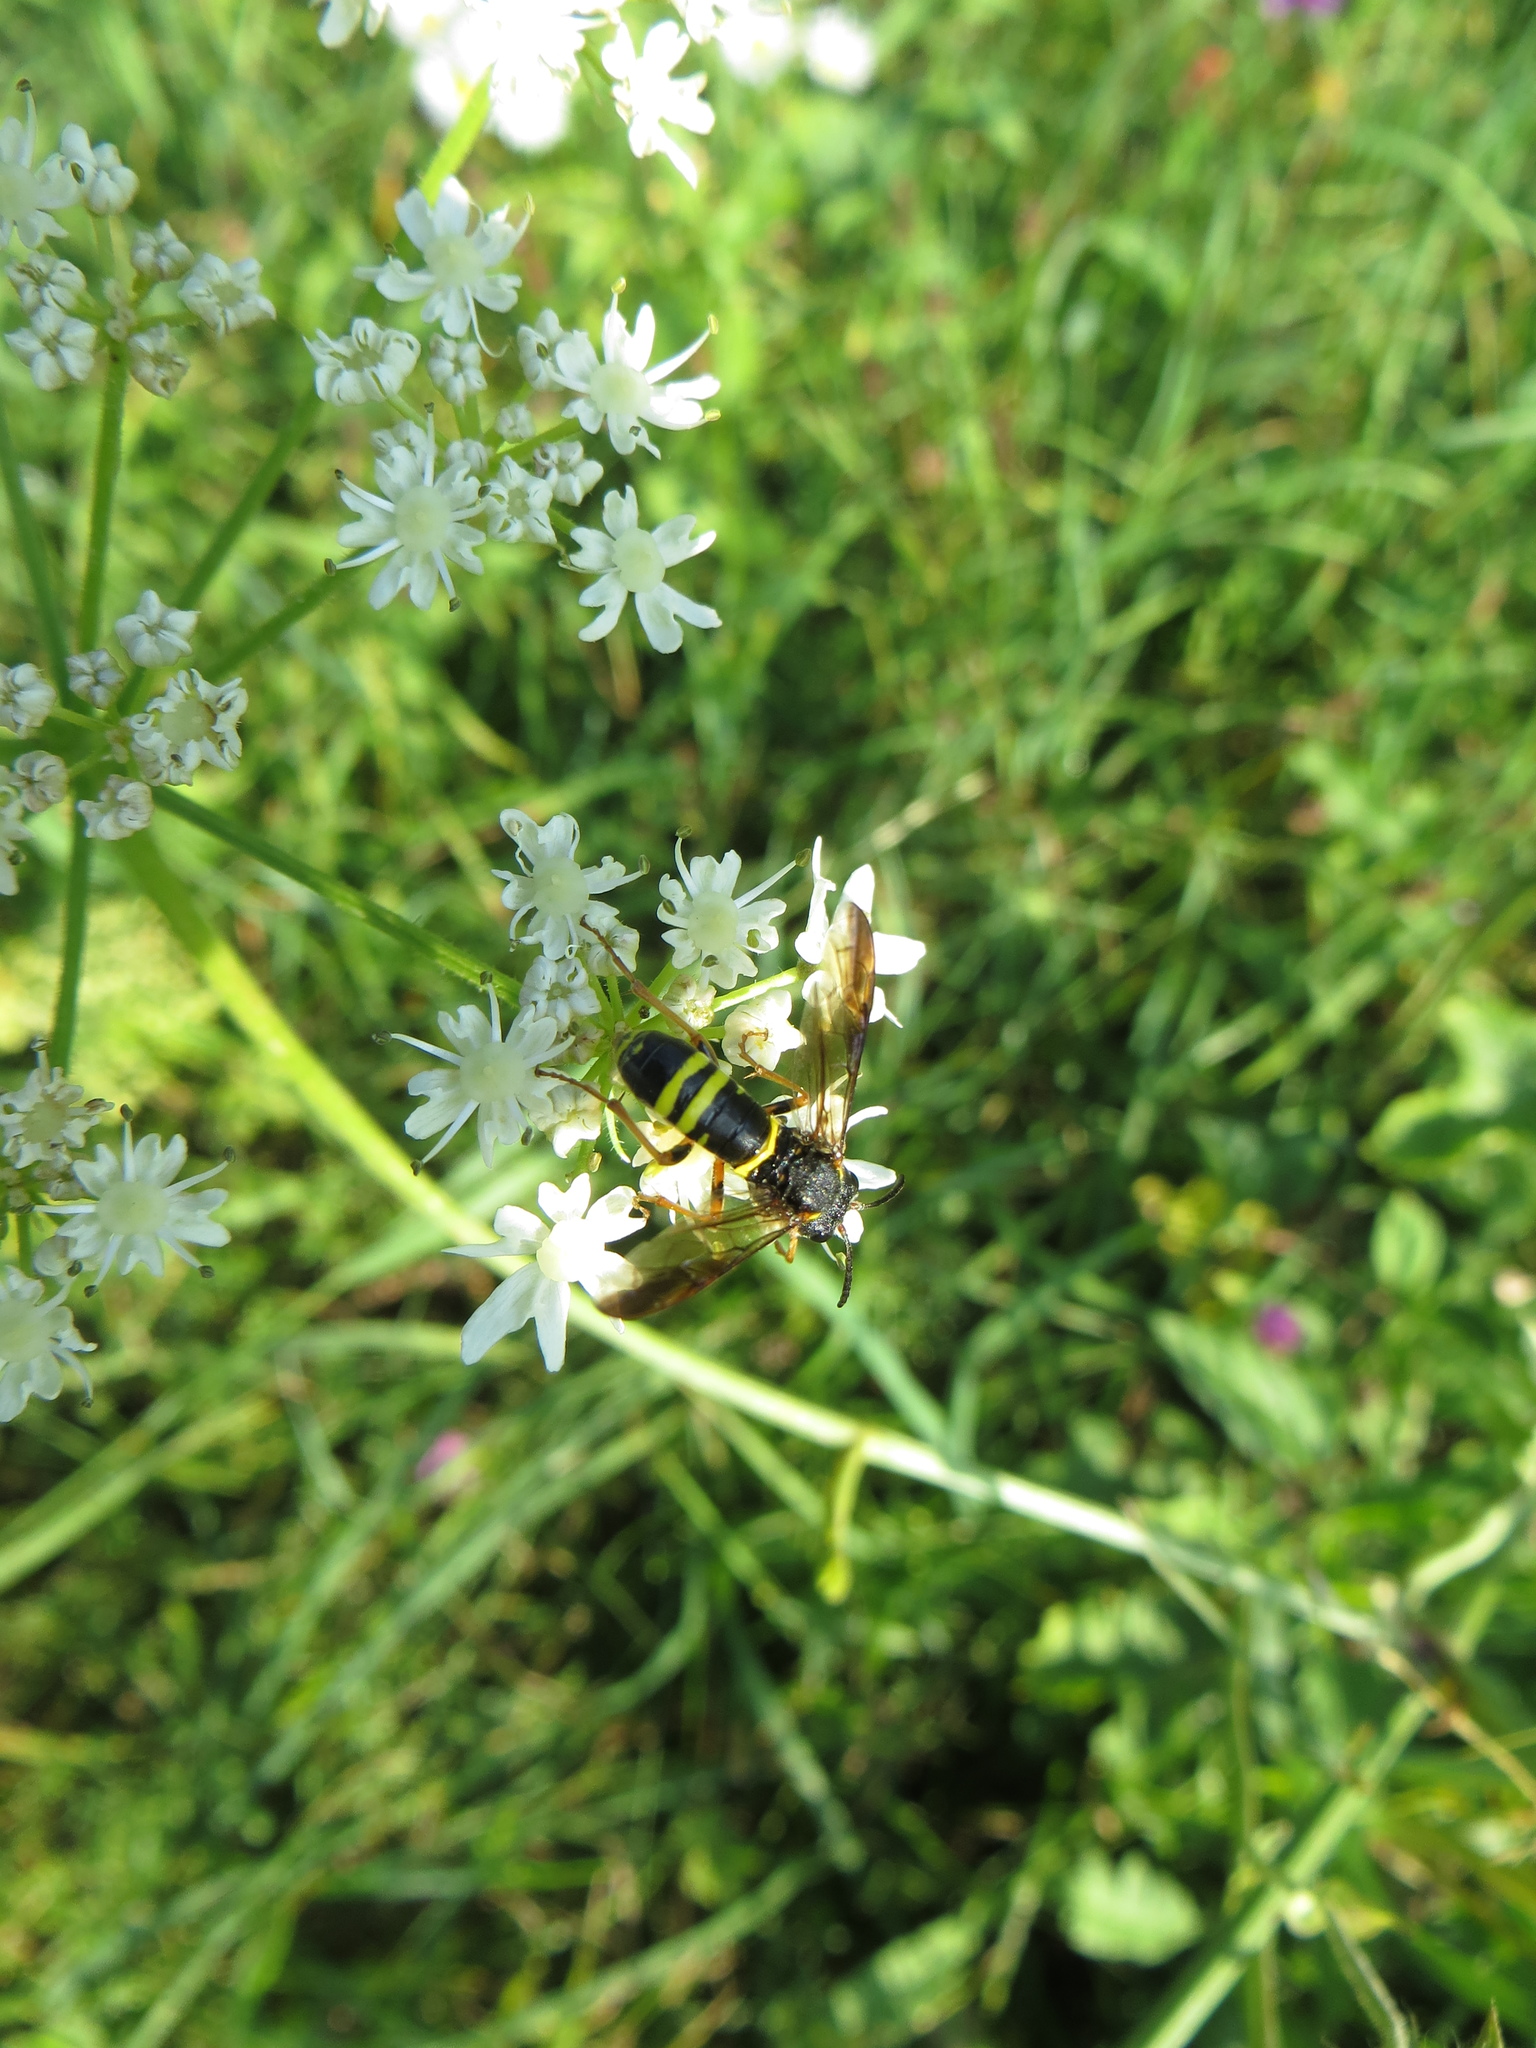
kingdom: Animalia
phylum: Arthropoda
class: Insecta
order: Hymenoptera
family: Tenthredinidae
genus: Tenthredo
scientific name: Tenthredo vespa
